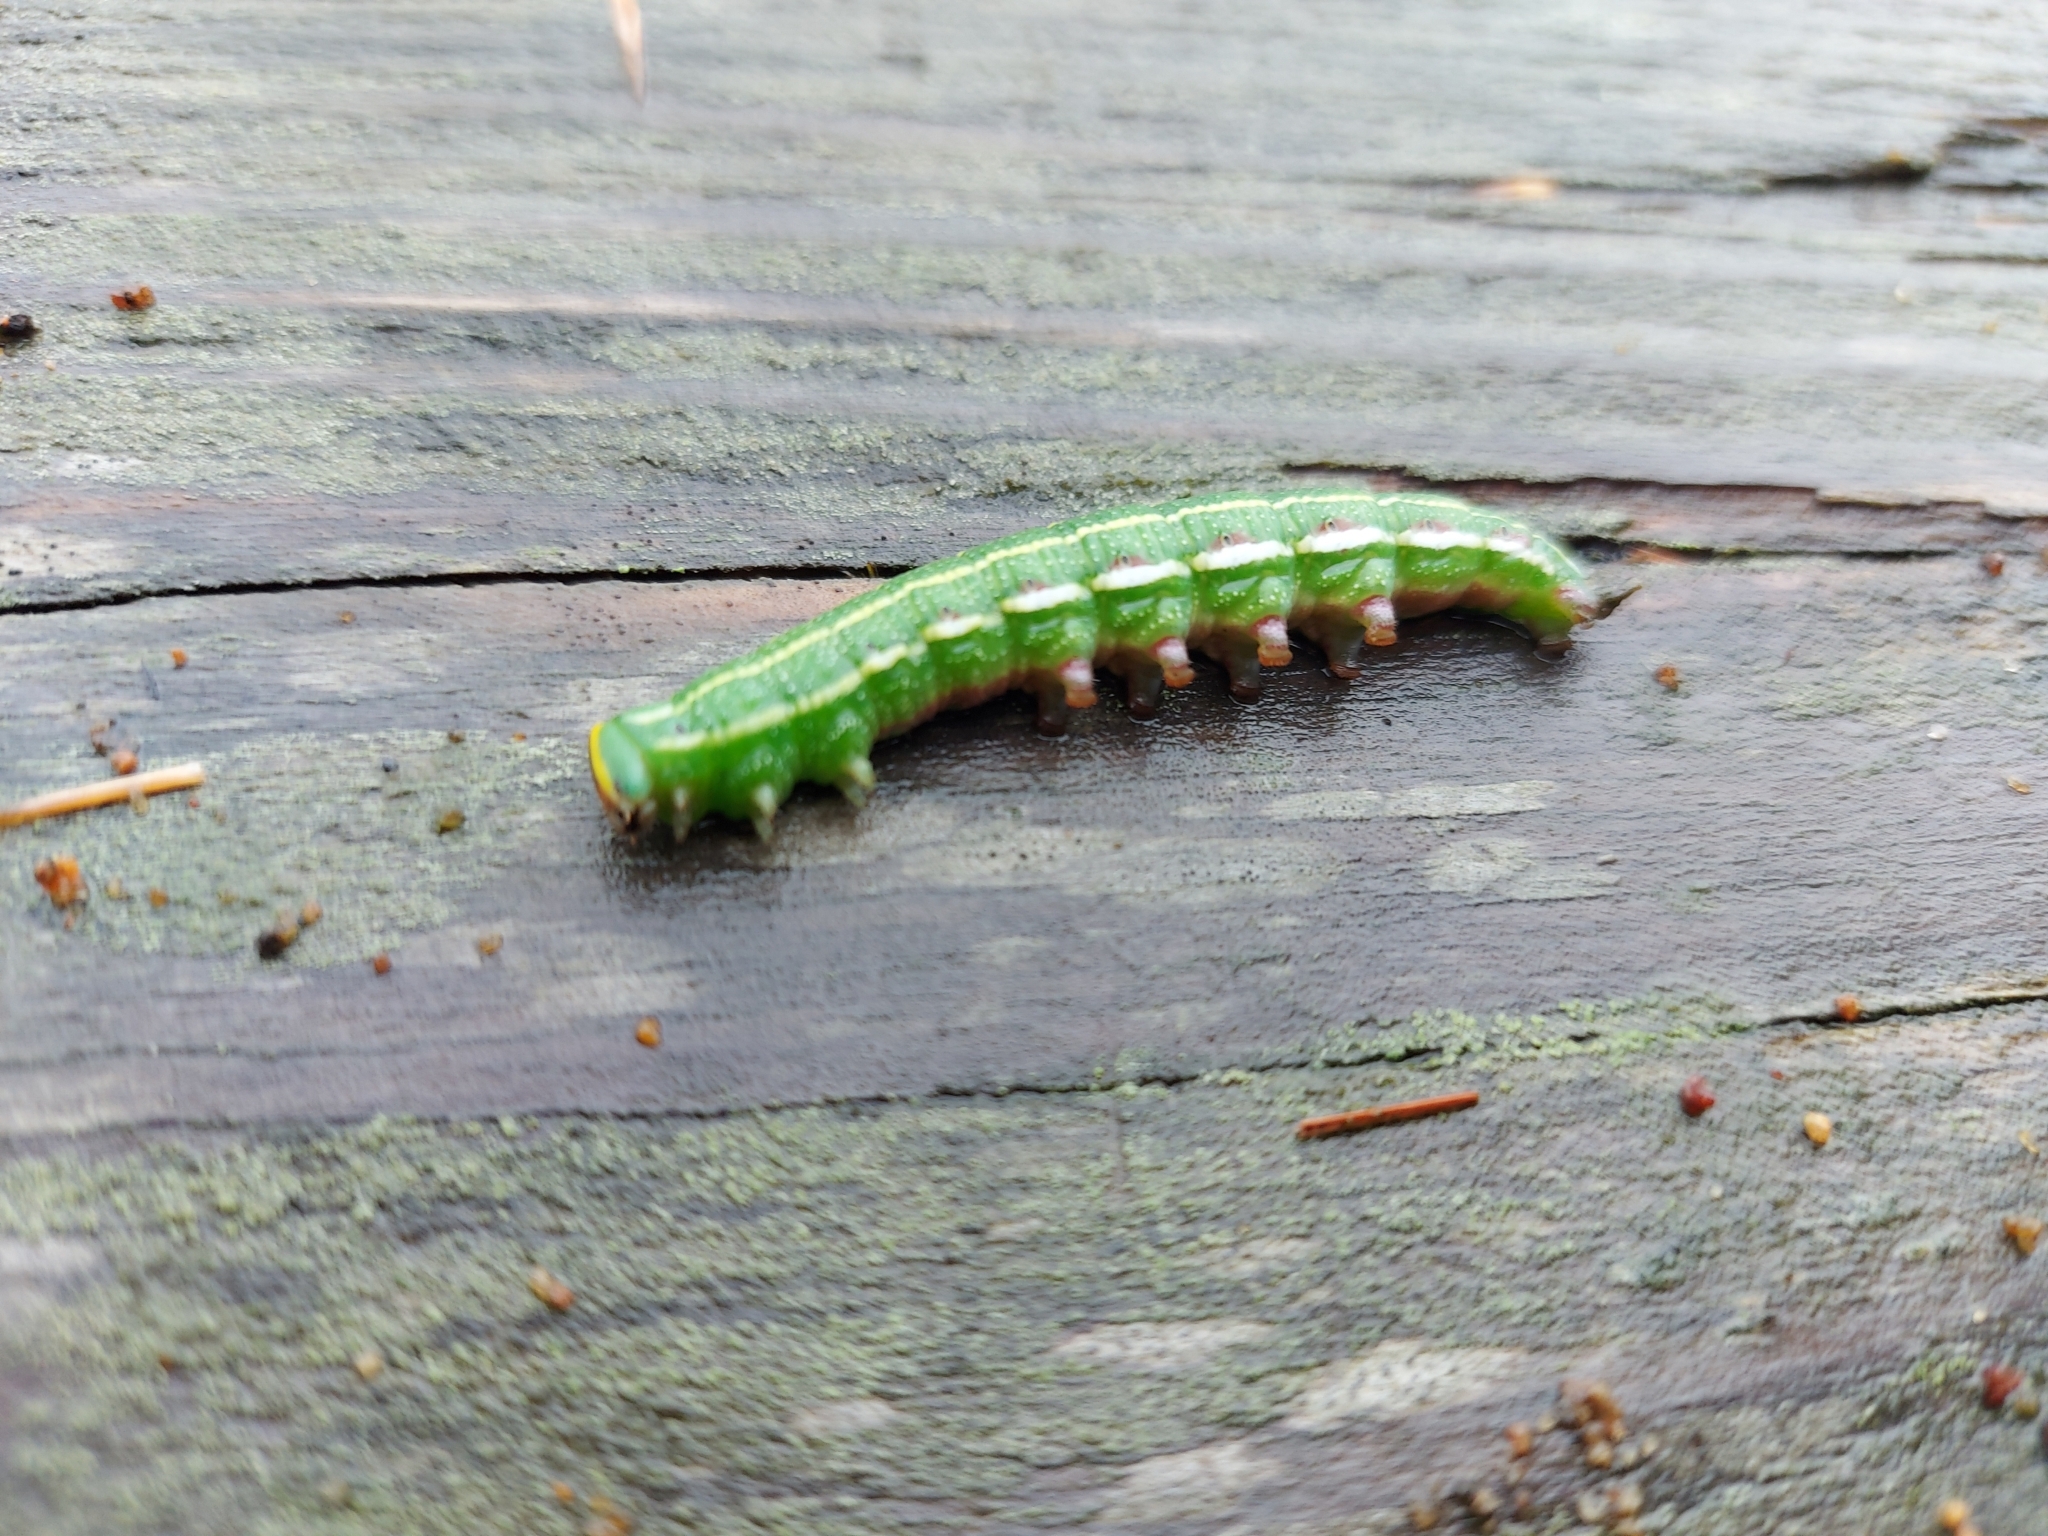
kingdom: Animalia
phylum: Arthropoda
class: Insecta
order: Lepidoptera
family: Sphingidae
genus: Lapara
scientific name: Lapara bombycoides
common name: Northern pine sphinx
